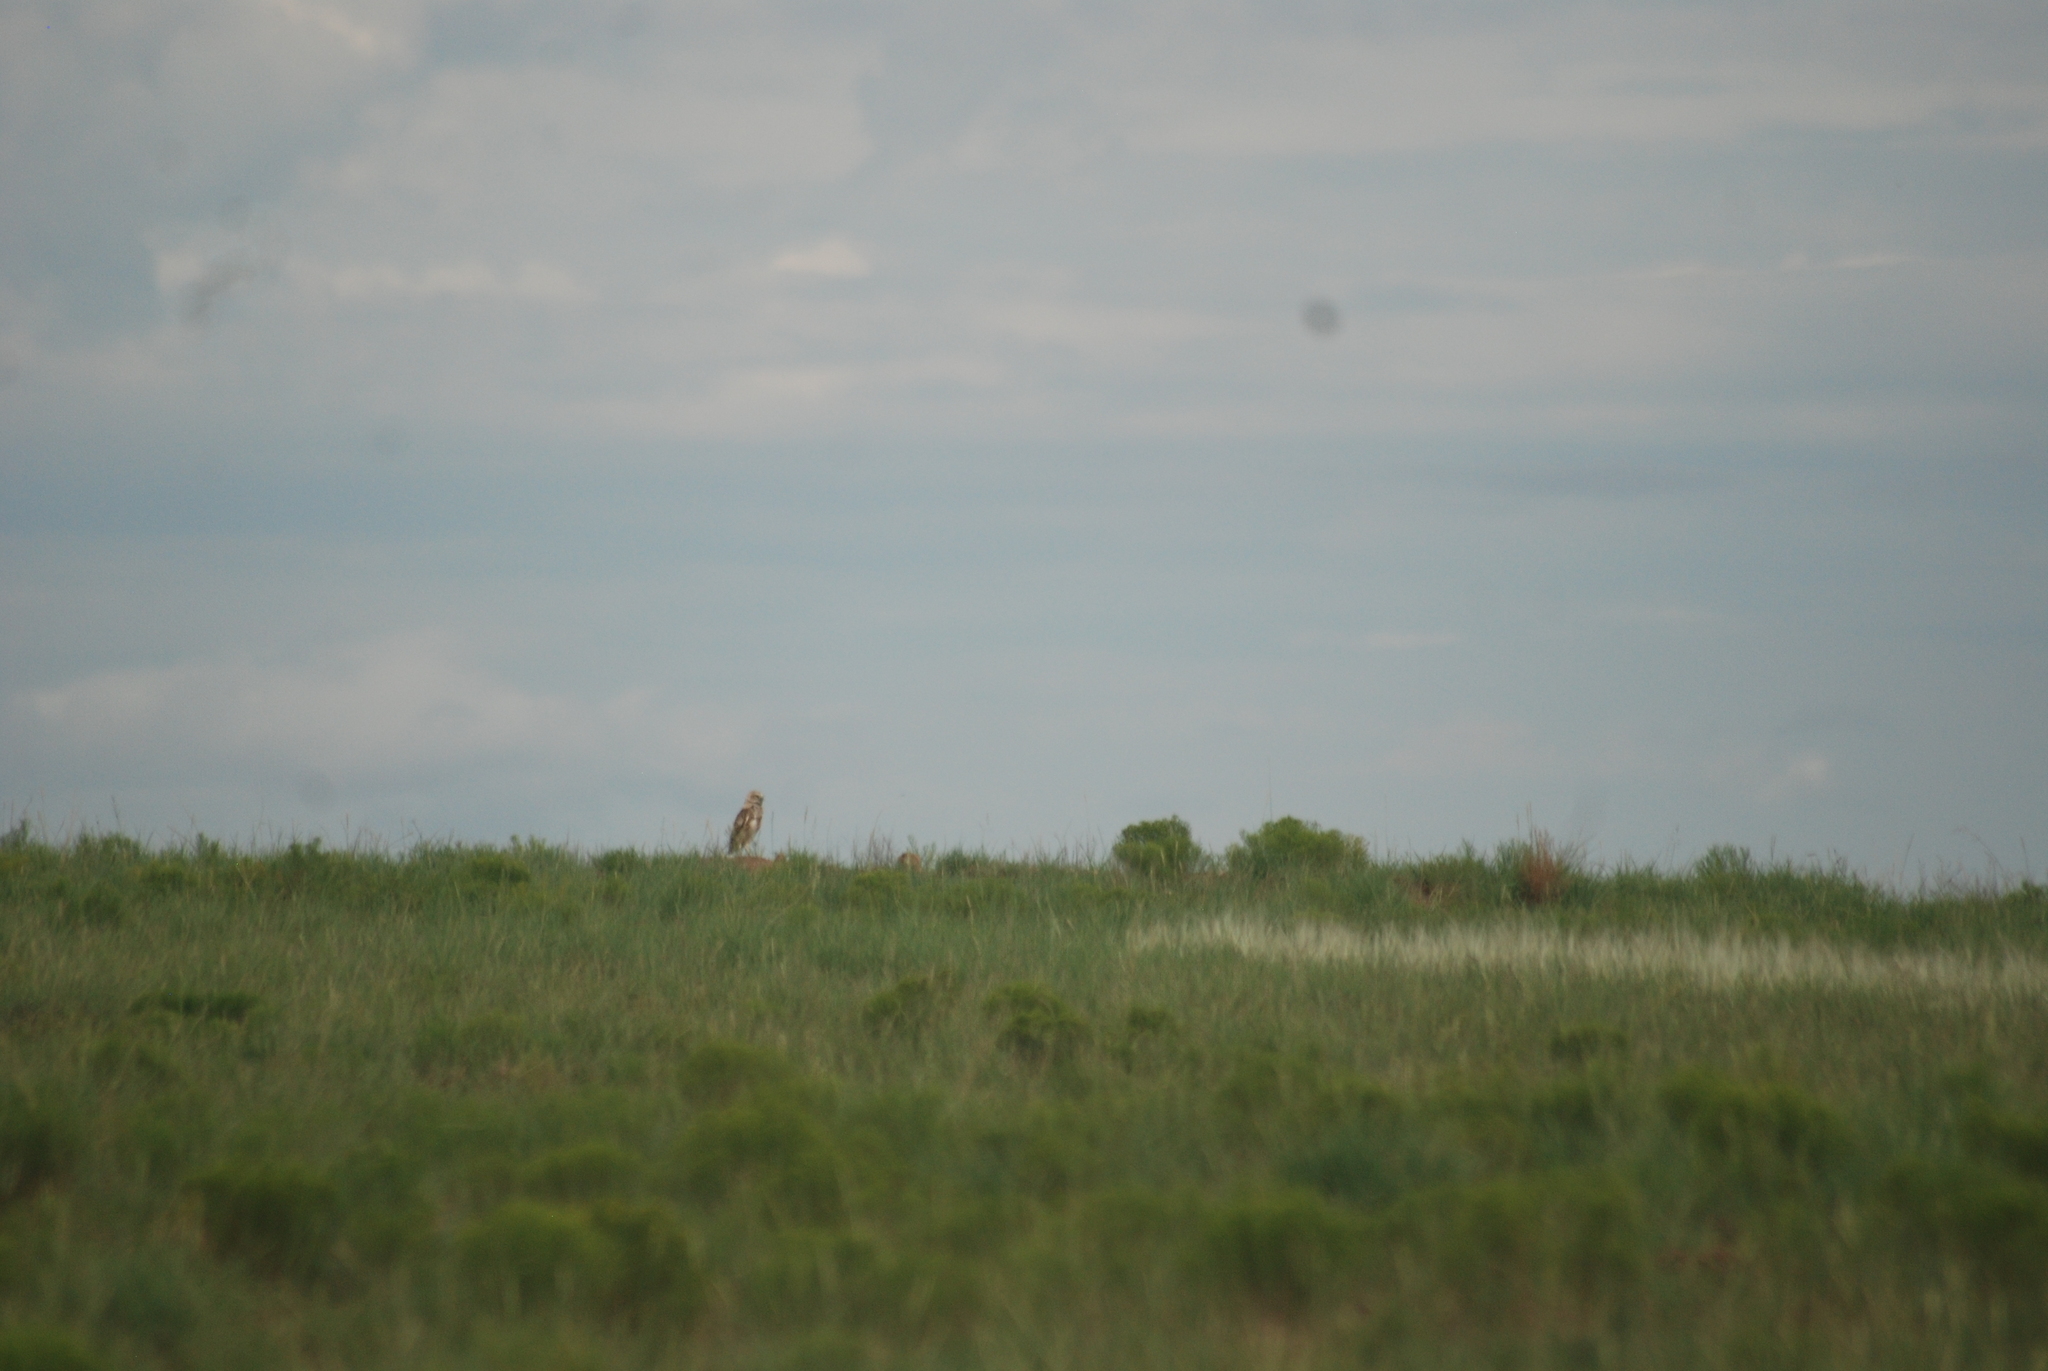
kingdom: Animalia
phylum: Chordata
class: Aves
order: Strigiformes
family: Strigidae
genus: Athene
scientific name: Athene cunicularia
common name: Burrowing owl
